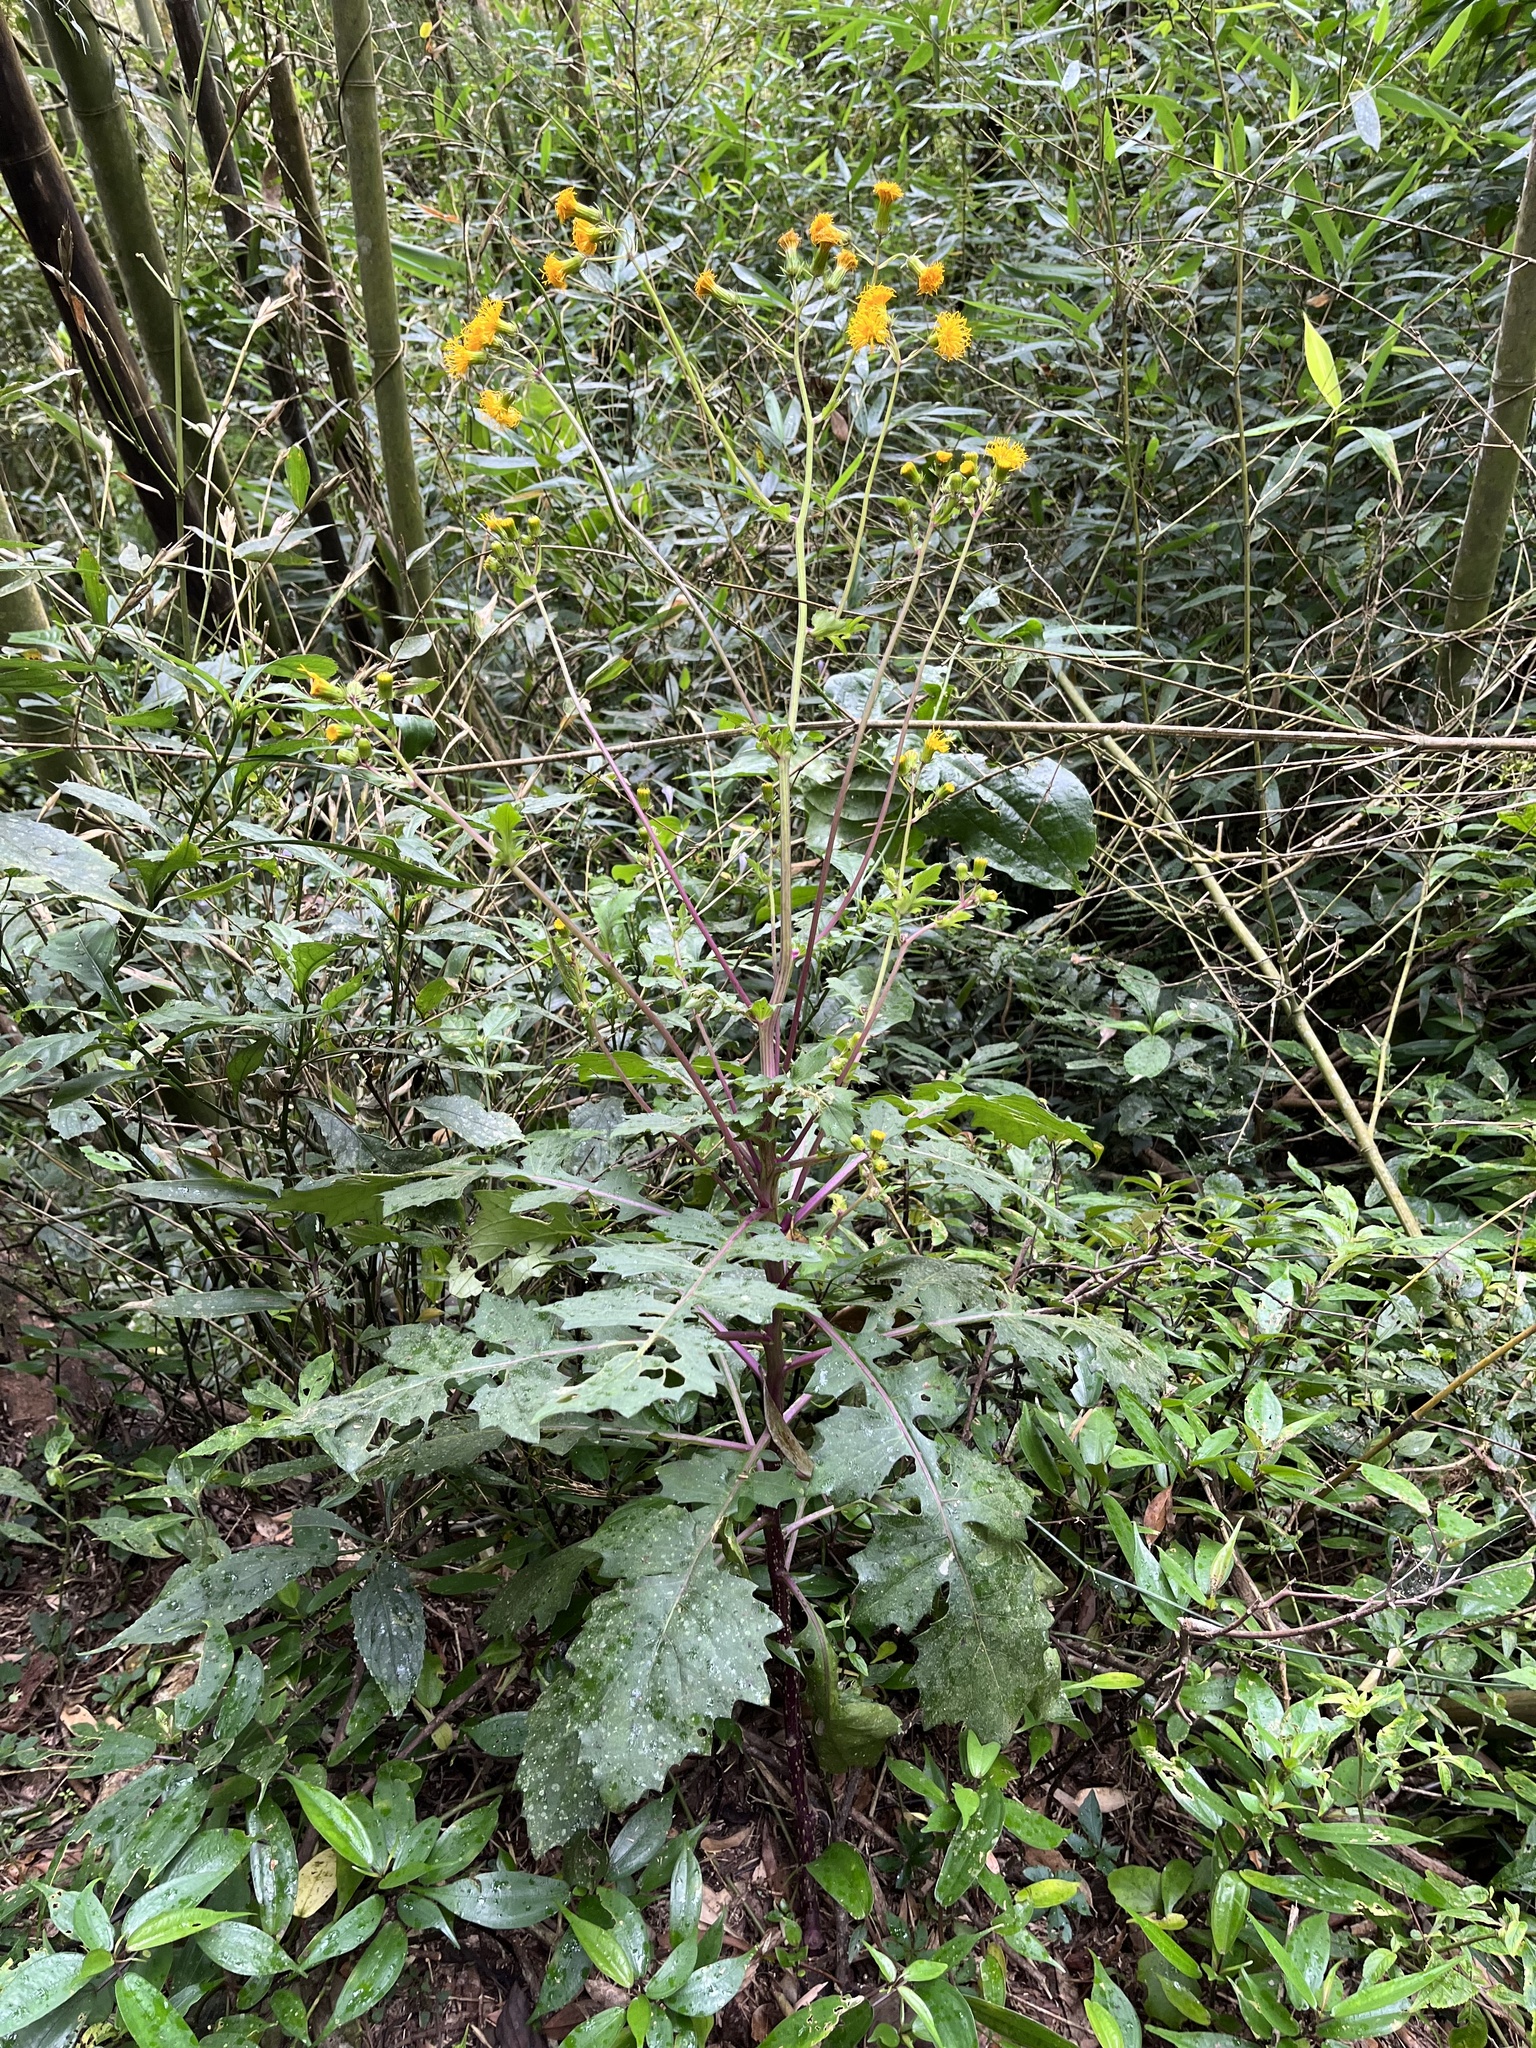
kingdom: Plantae
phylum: Tracheophyta
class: Magnoliopsida
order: Asterales
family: Asteraceae
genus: Gynura
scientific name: Gynura japonica
